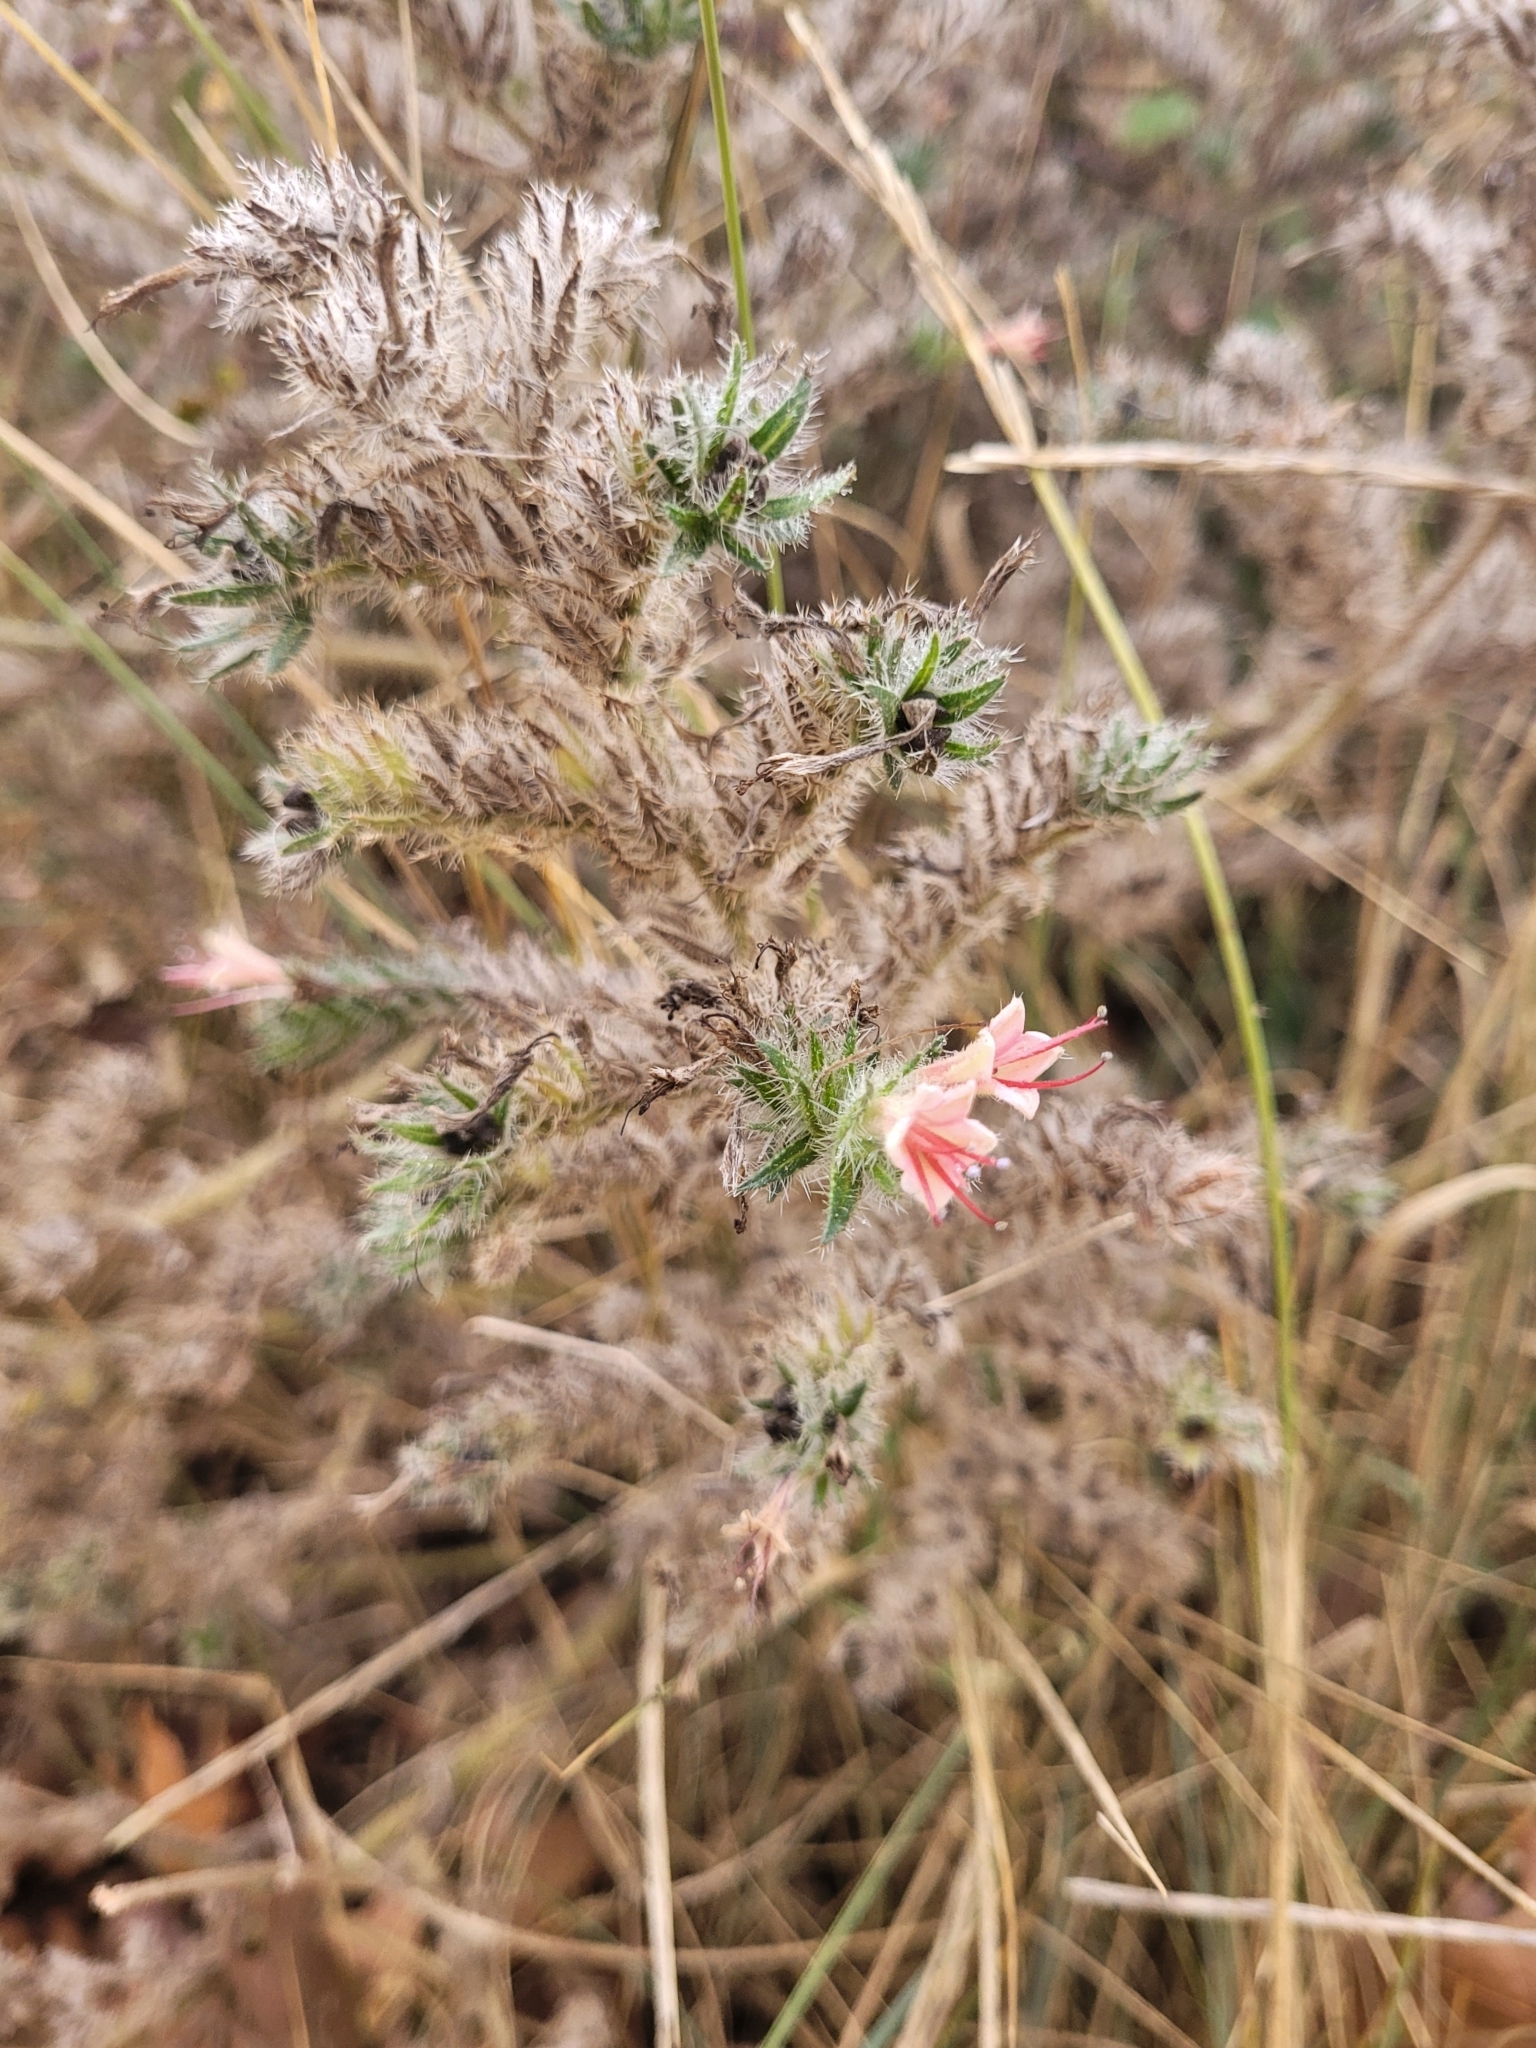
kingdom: Plantae
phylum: Tracheophyta
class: Magnoliopsida
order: Boraginales
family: Boraginaceae
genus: Echium
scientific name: Echium asperrimum
